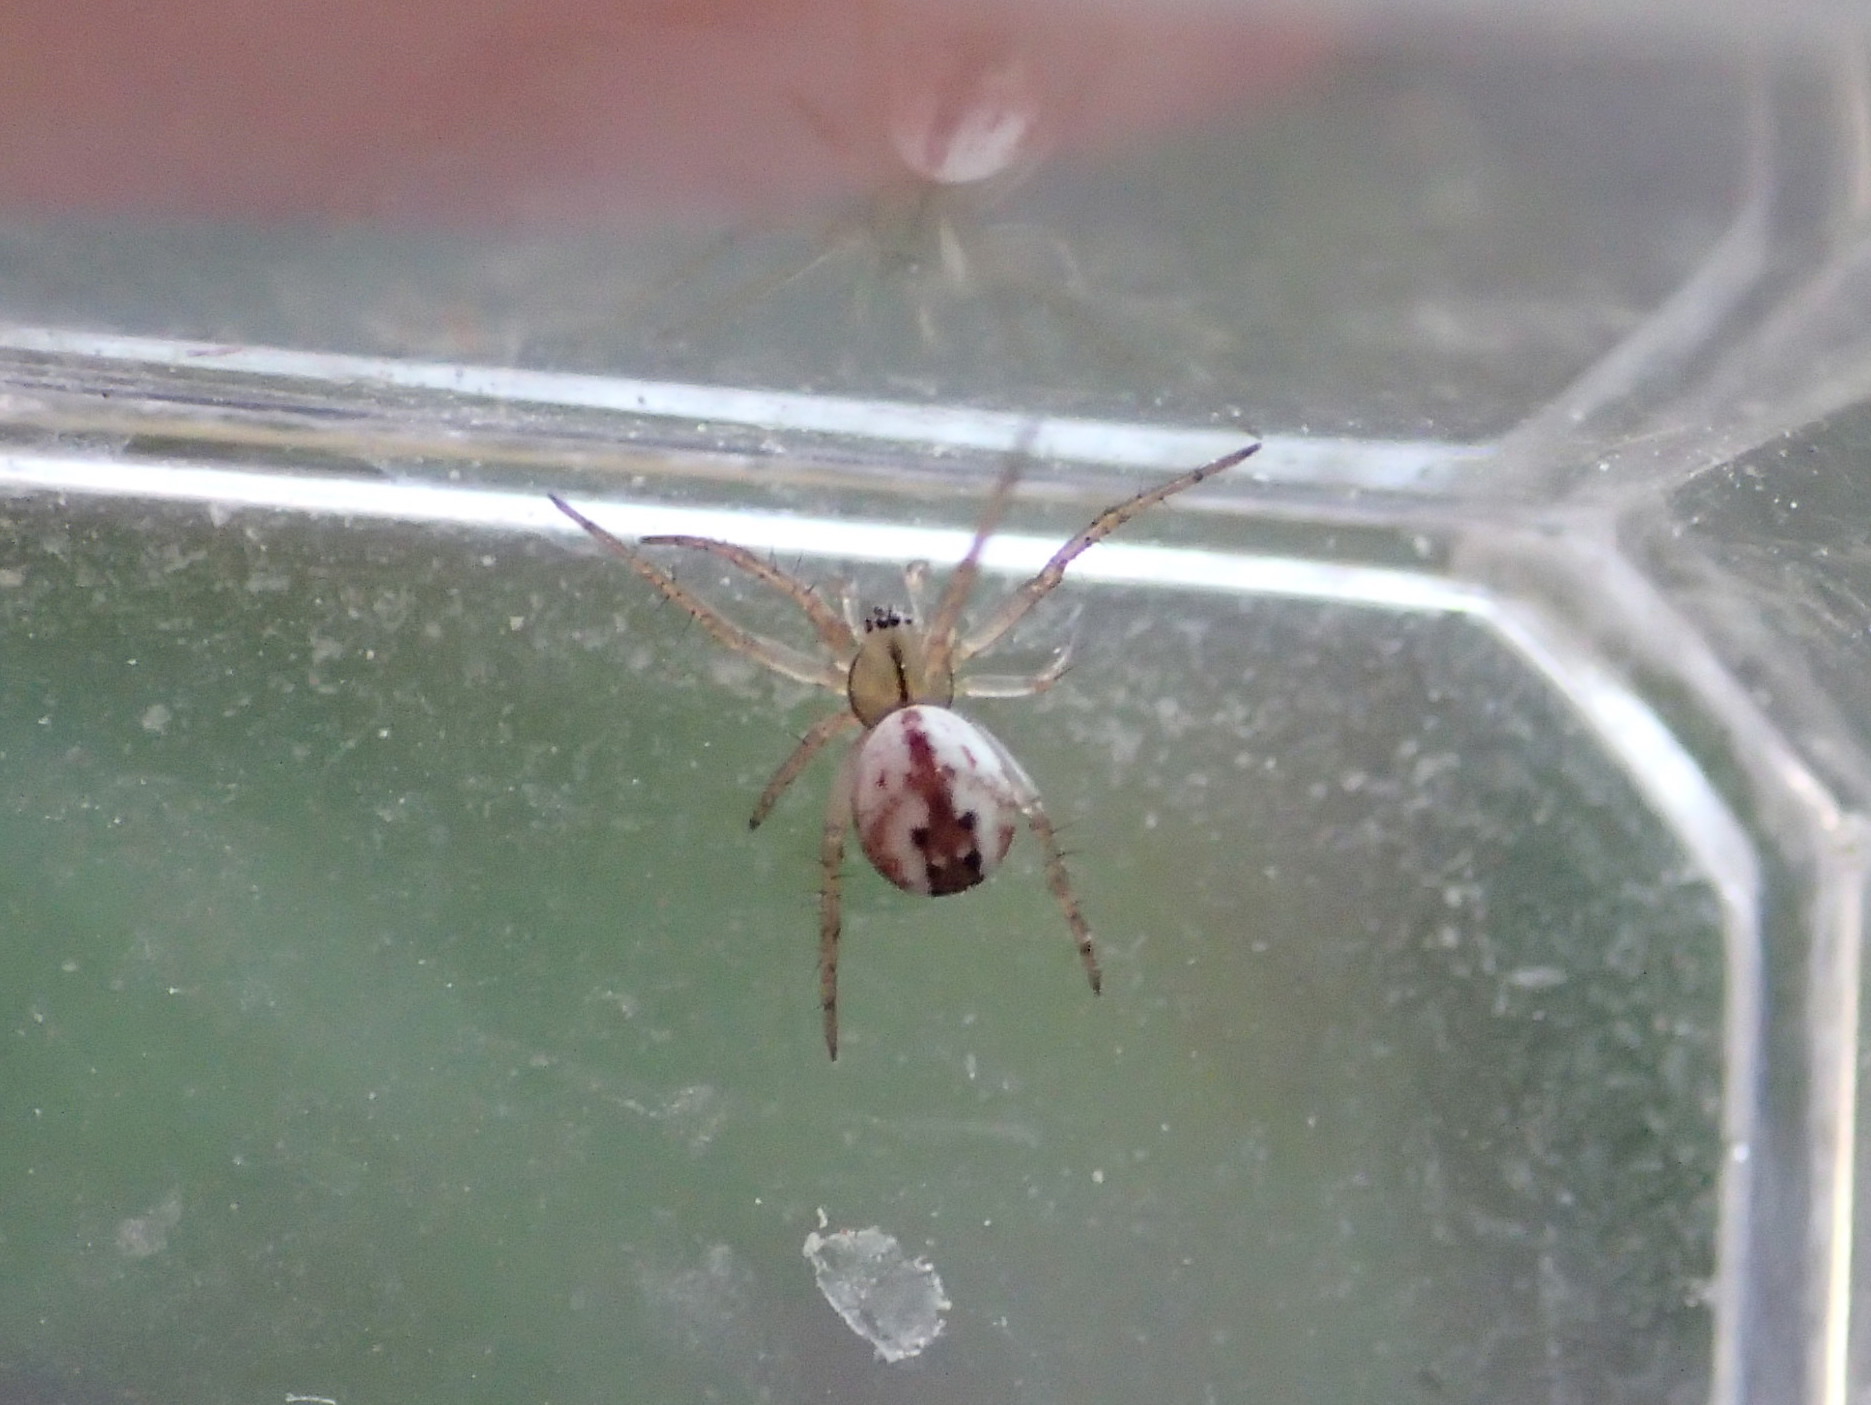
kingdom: Animalia
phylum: Arthropoda
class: Arachnida
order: Araneae
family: Araneidae
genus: Mangora
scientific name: Mangora acalypha
